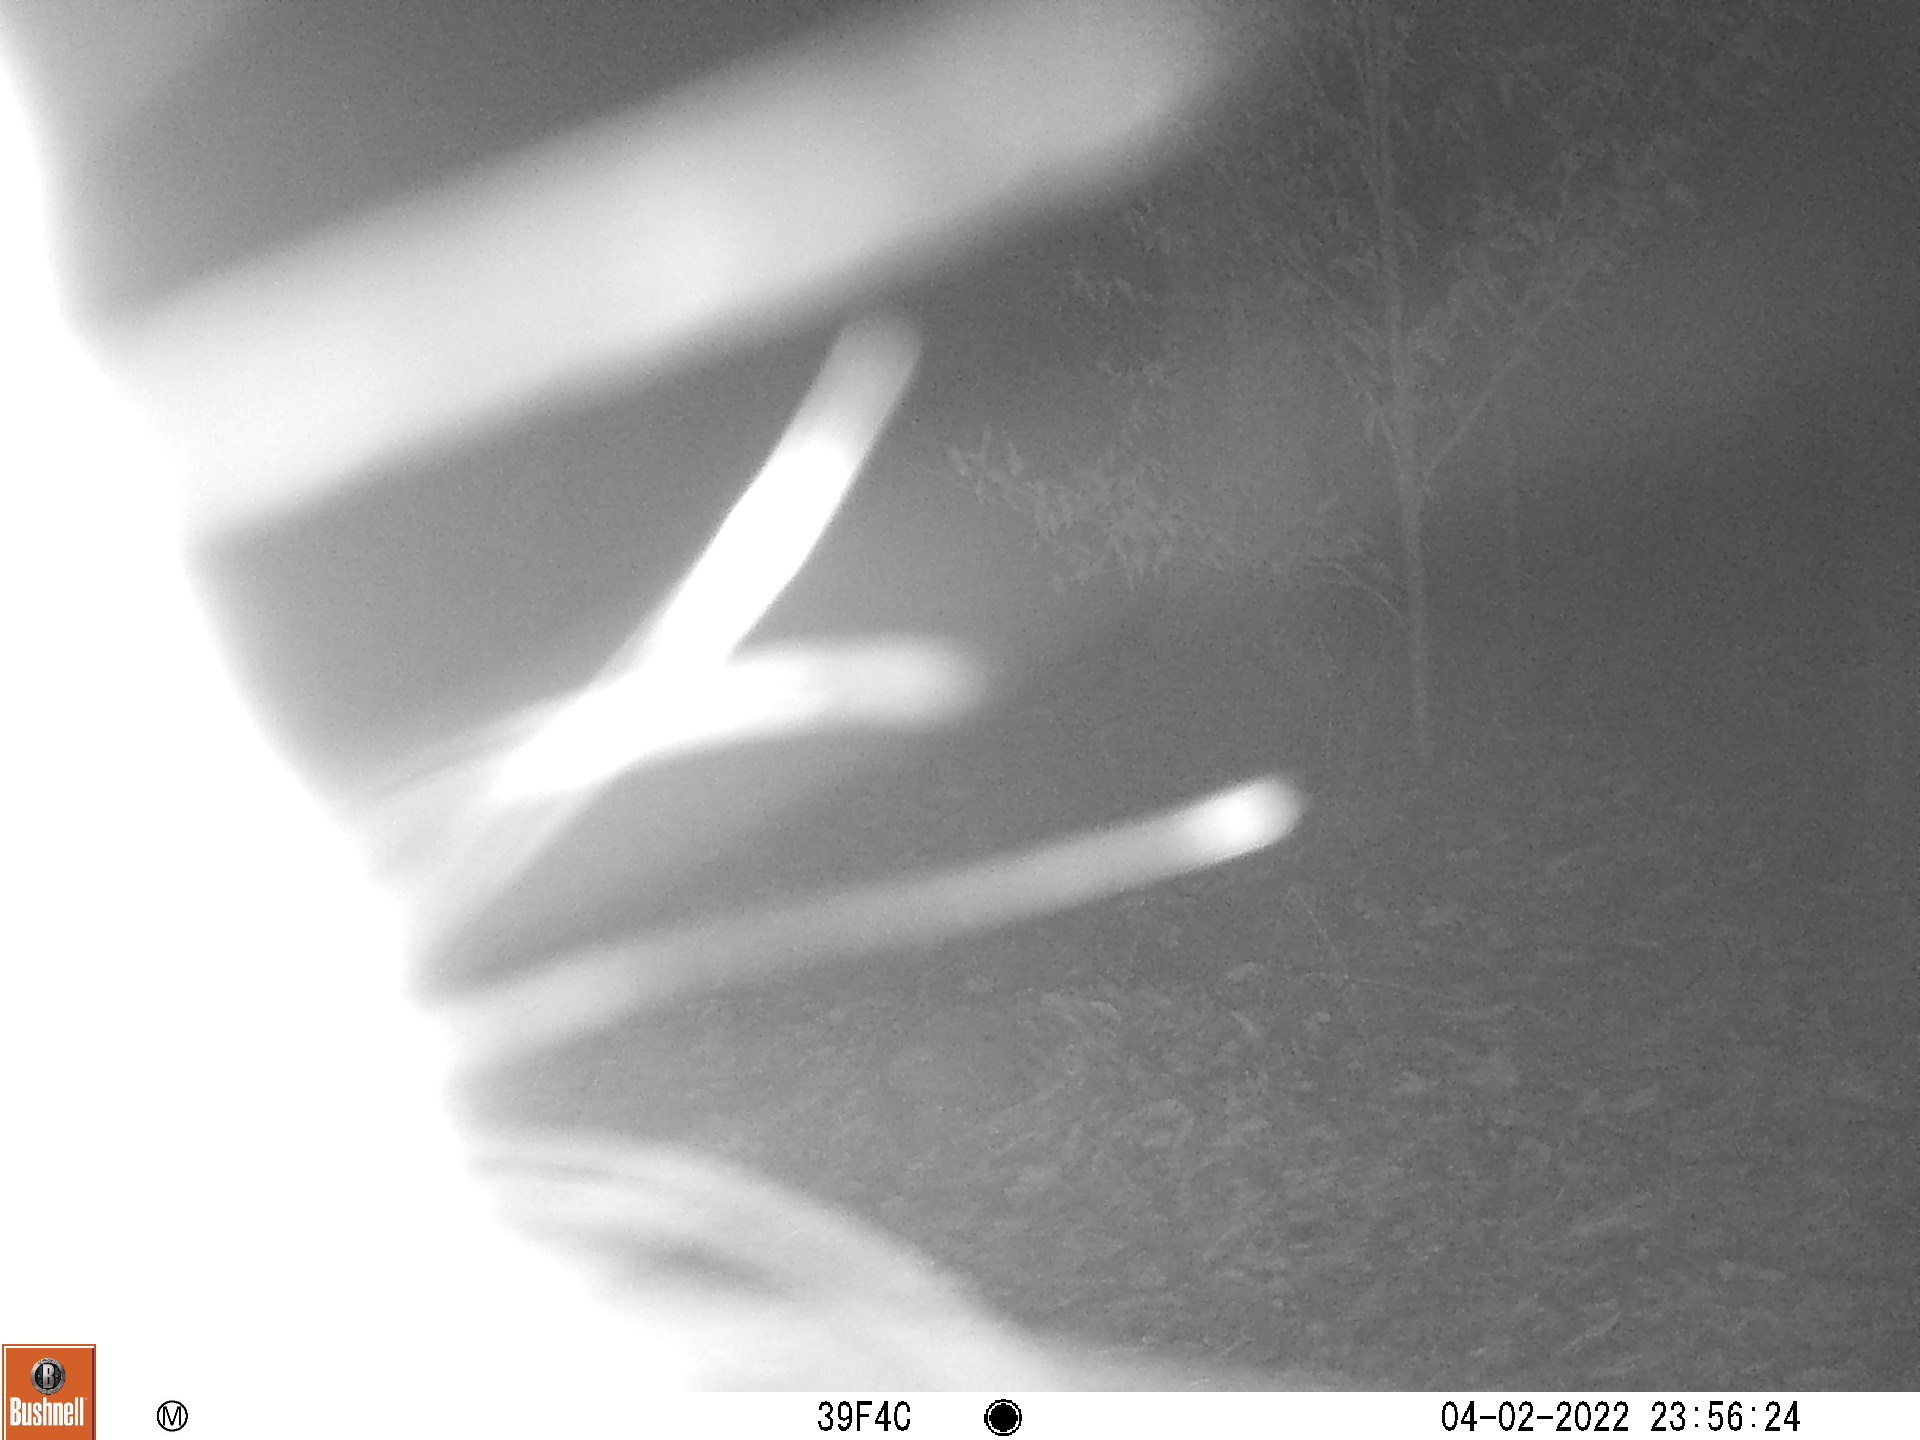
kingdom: Animalia
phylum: Chordata
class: Mammalia
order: Rodentia
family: Erethizontidae
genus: Erethizon
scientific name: Erethizon dorsatus
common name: North american porcupine
